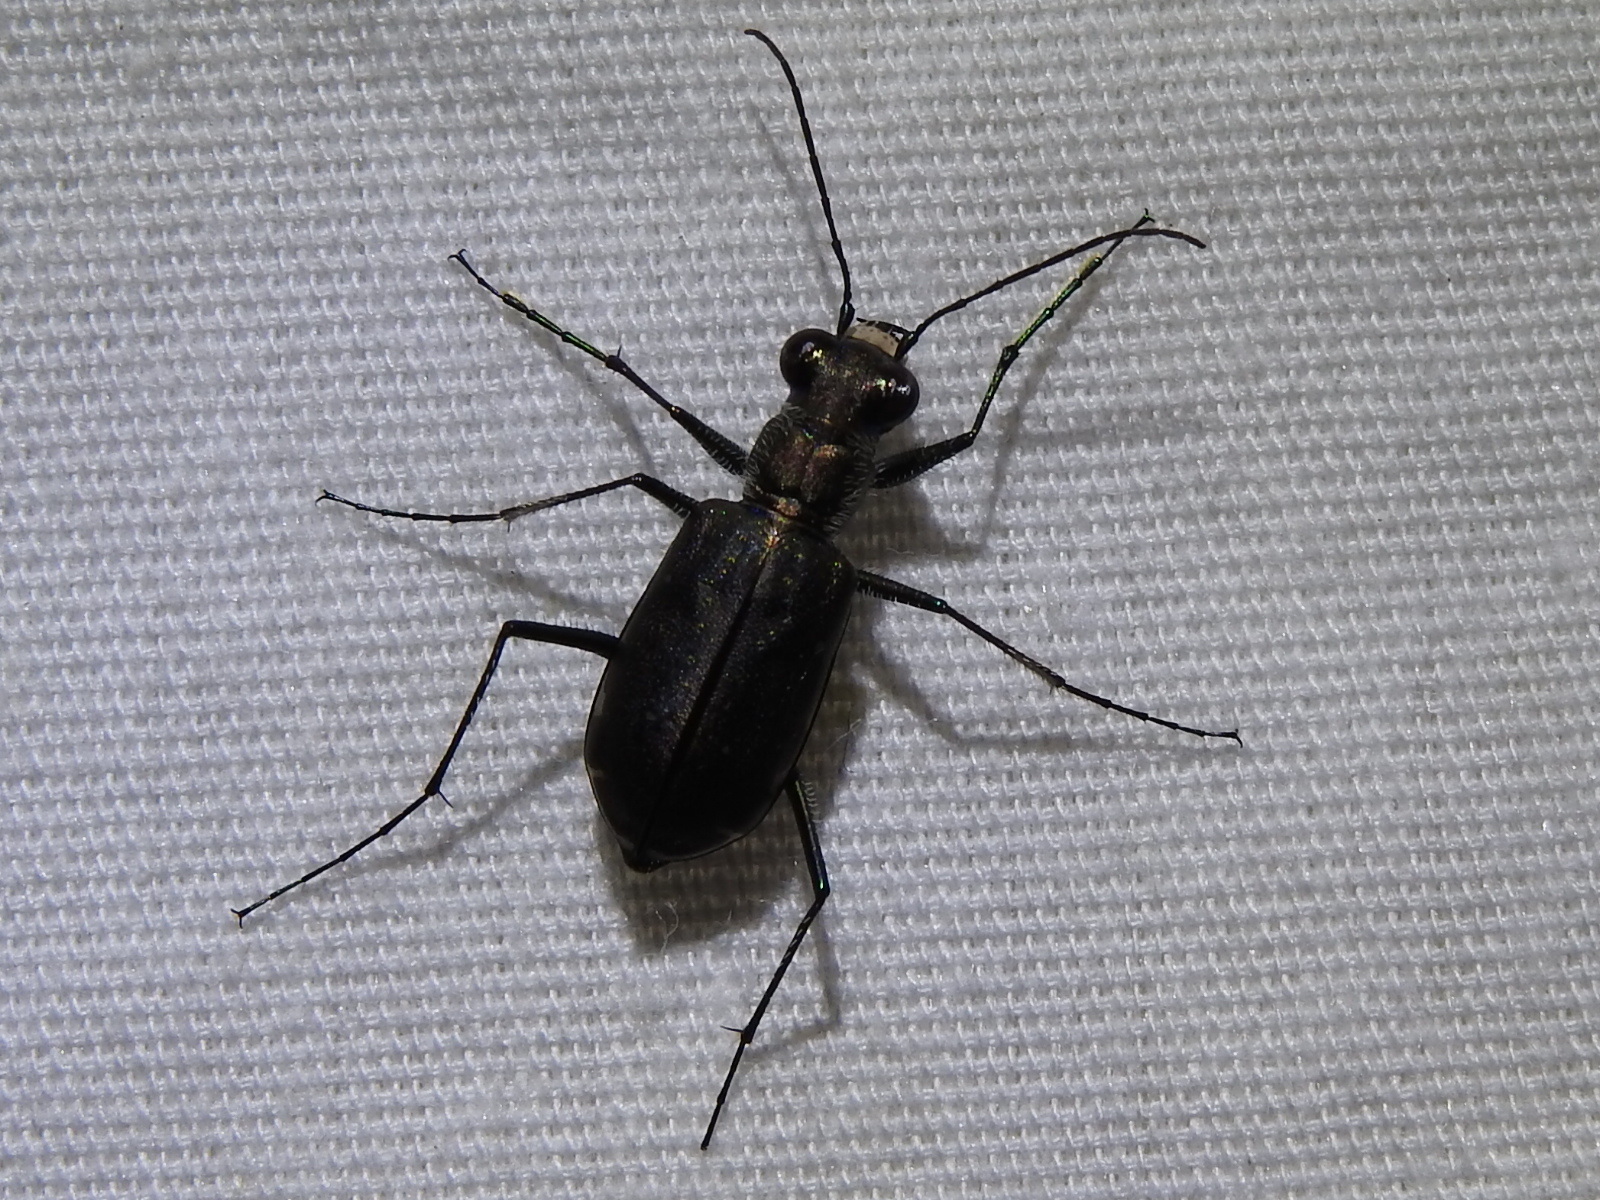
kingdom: Animalia
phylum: Arthropoda
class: Insecta
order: Coleoptera
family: Carabidae
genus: Cicindela
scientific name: Cicindela punctulata
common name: Punctured tiger beetle
